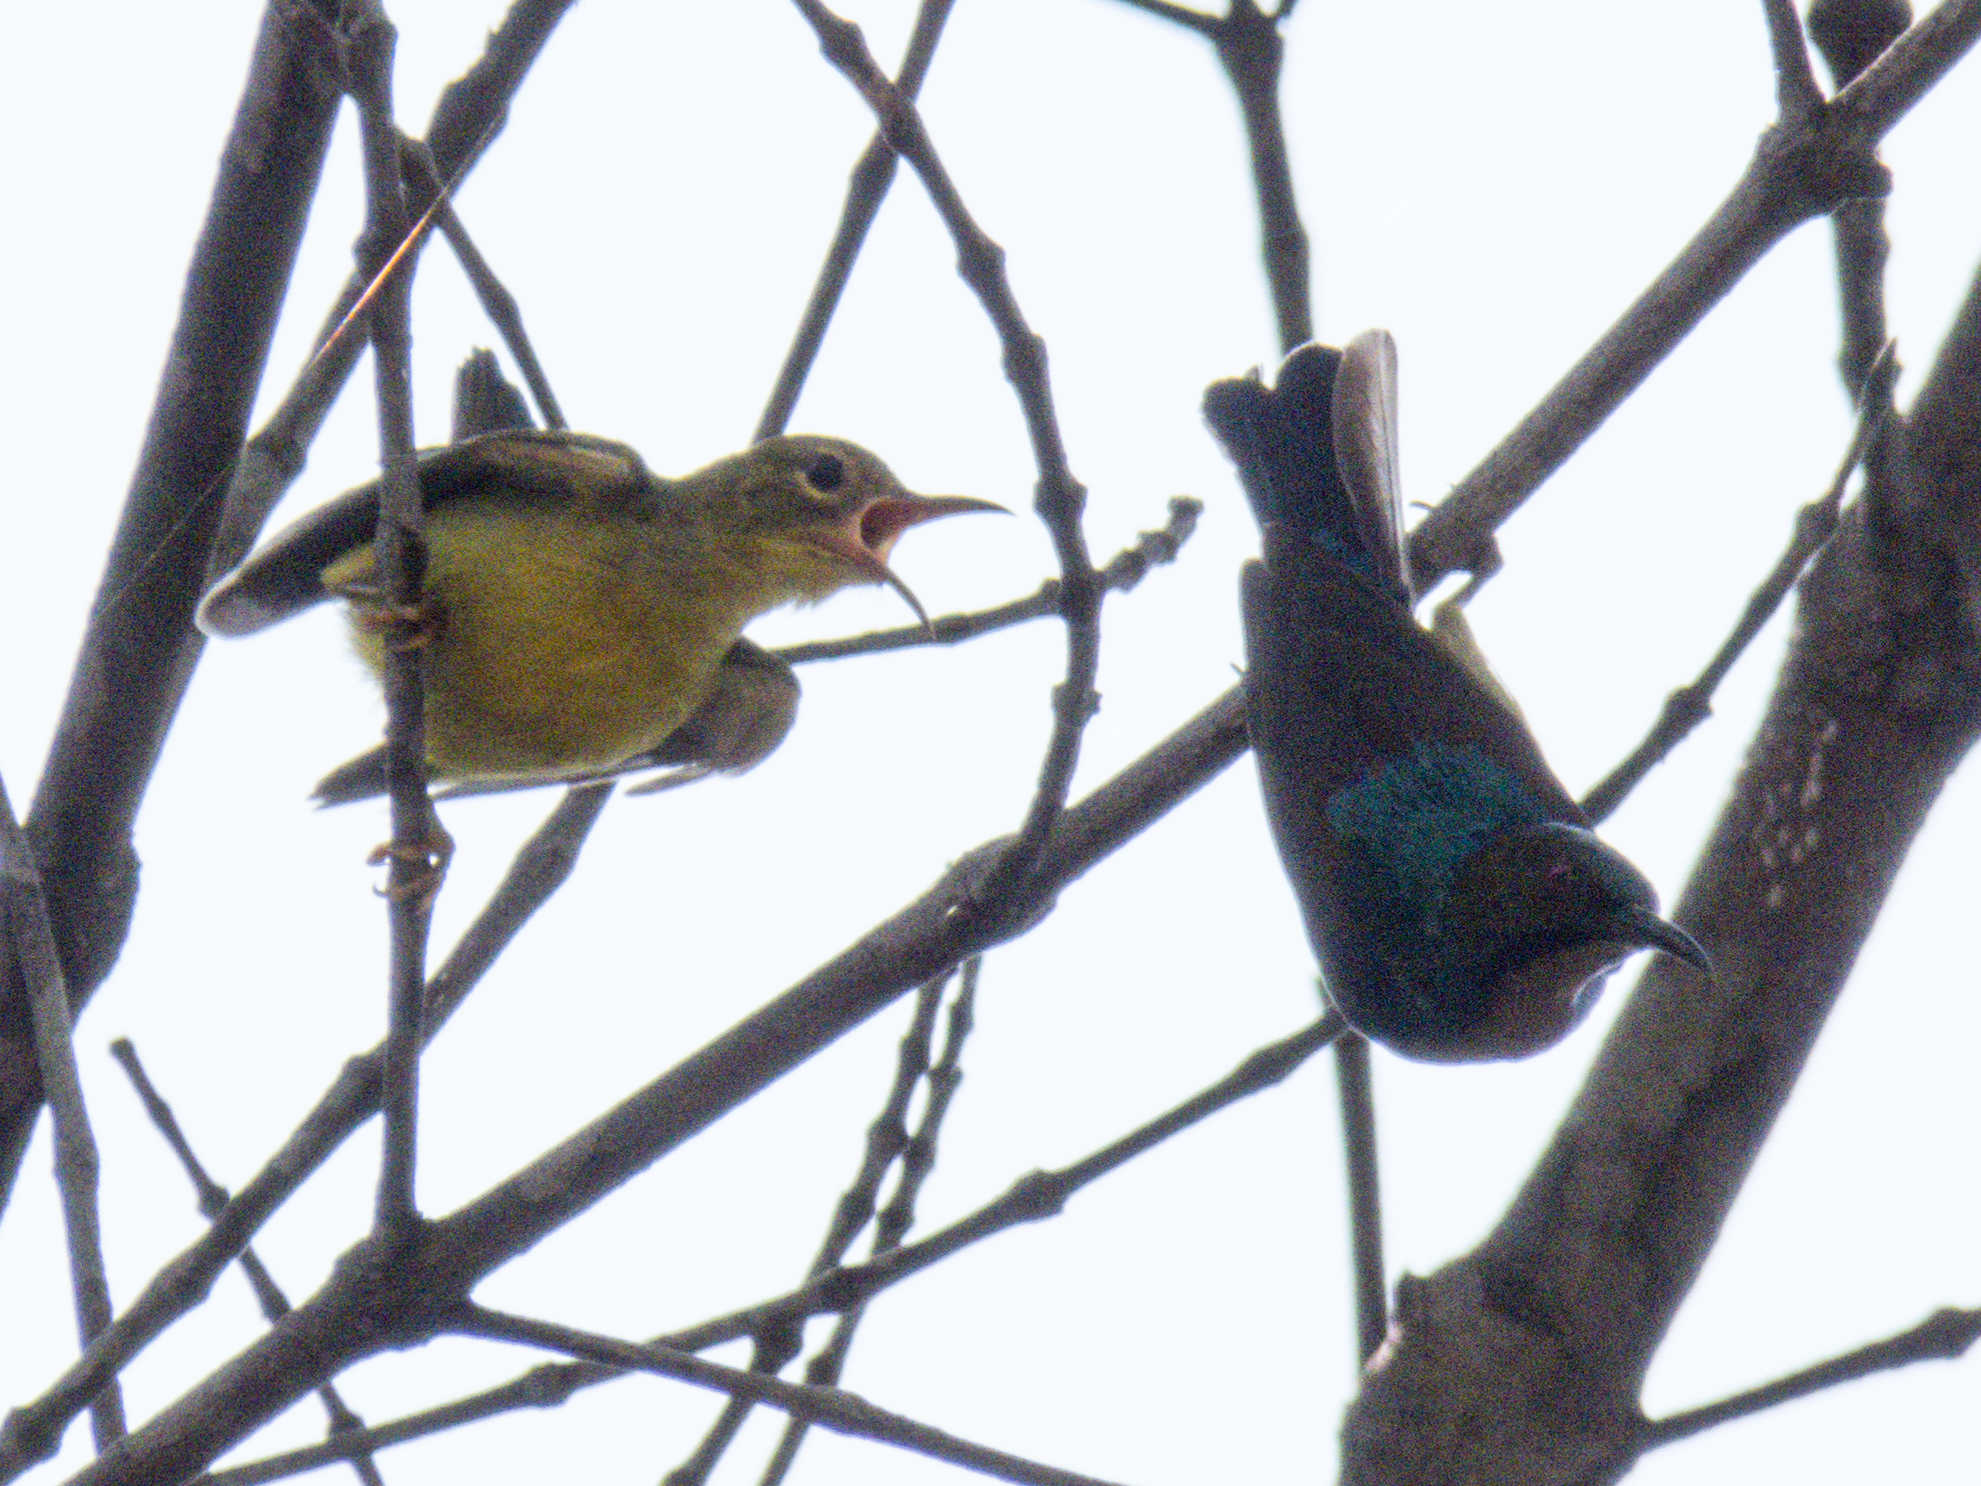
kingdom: Animalia
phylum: Chordata
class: Aves
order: Passeriformes
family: Nectariniidae
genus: Anthreptes
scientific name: Anthreptes malacensis
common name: Brown-throated sunbird
